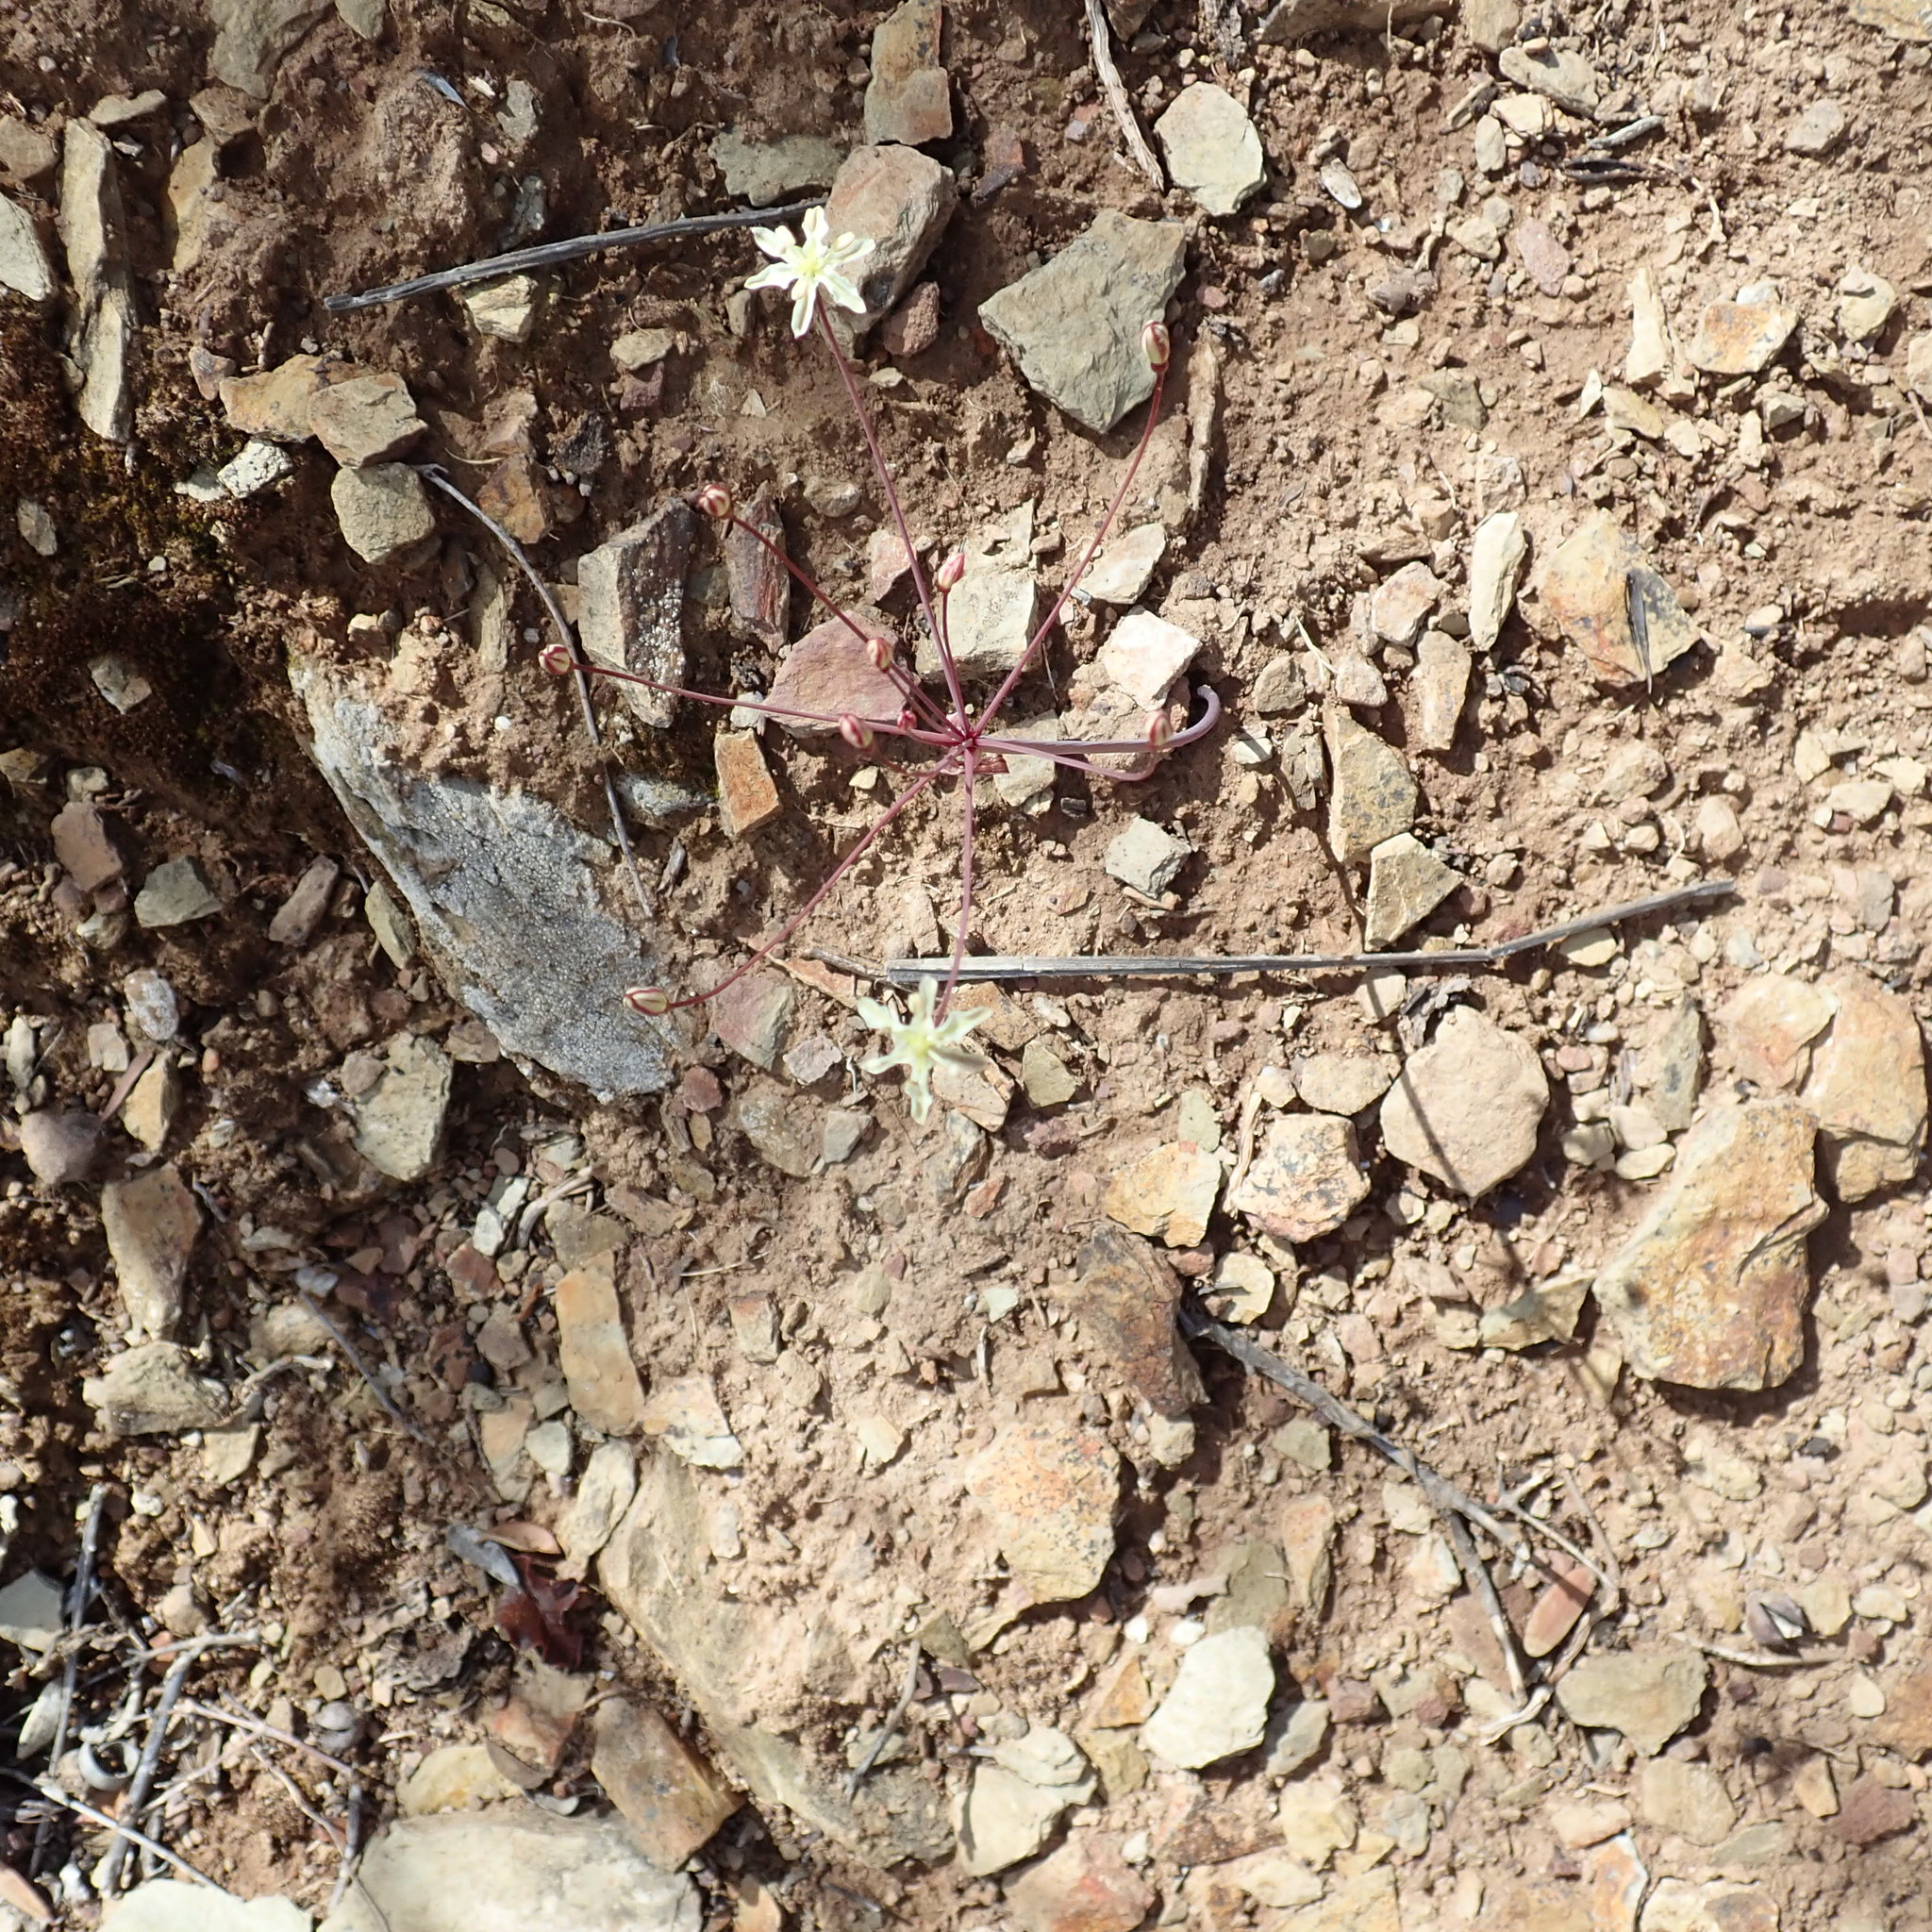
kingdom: Plantae
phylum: Tracheophyta
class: Liliopsida
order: Asparagales
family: Amaryllidaceae
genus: Strumaria
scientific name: Strumaria gemmata
